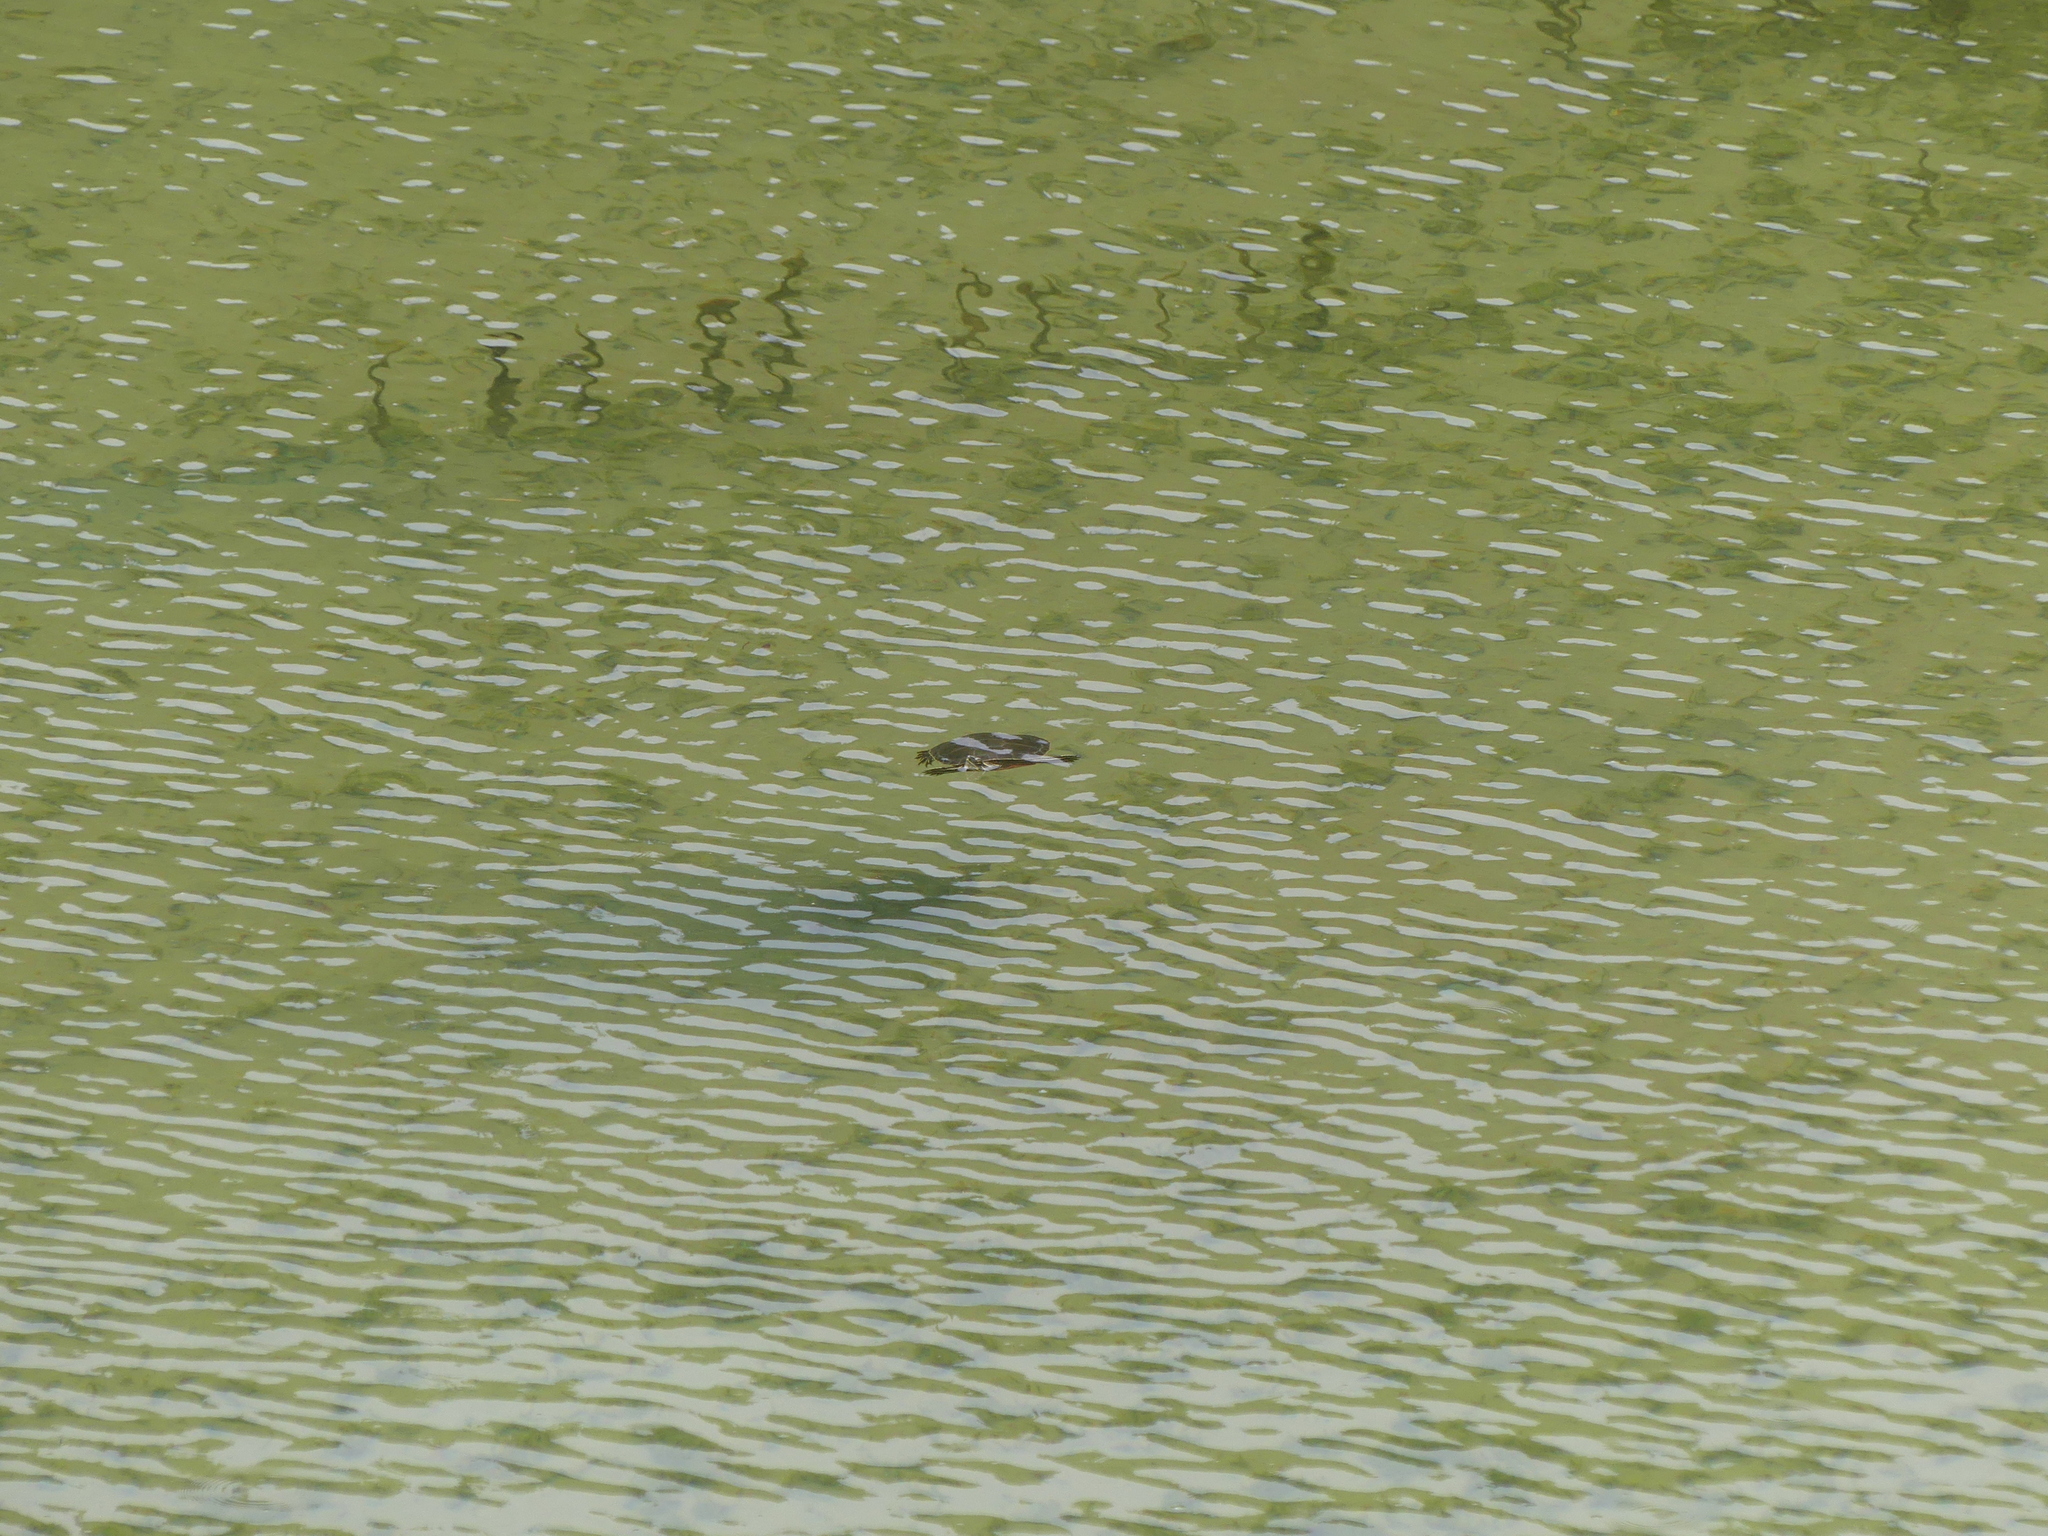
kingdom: Animalia
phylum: Chordata
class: Testudines
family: Emydidae
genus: Chrysemys
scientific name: Chrysemys picta
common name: Painted turtle
